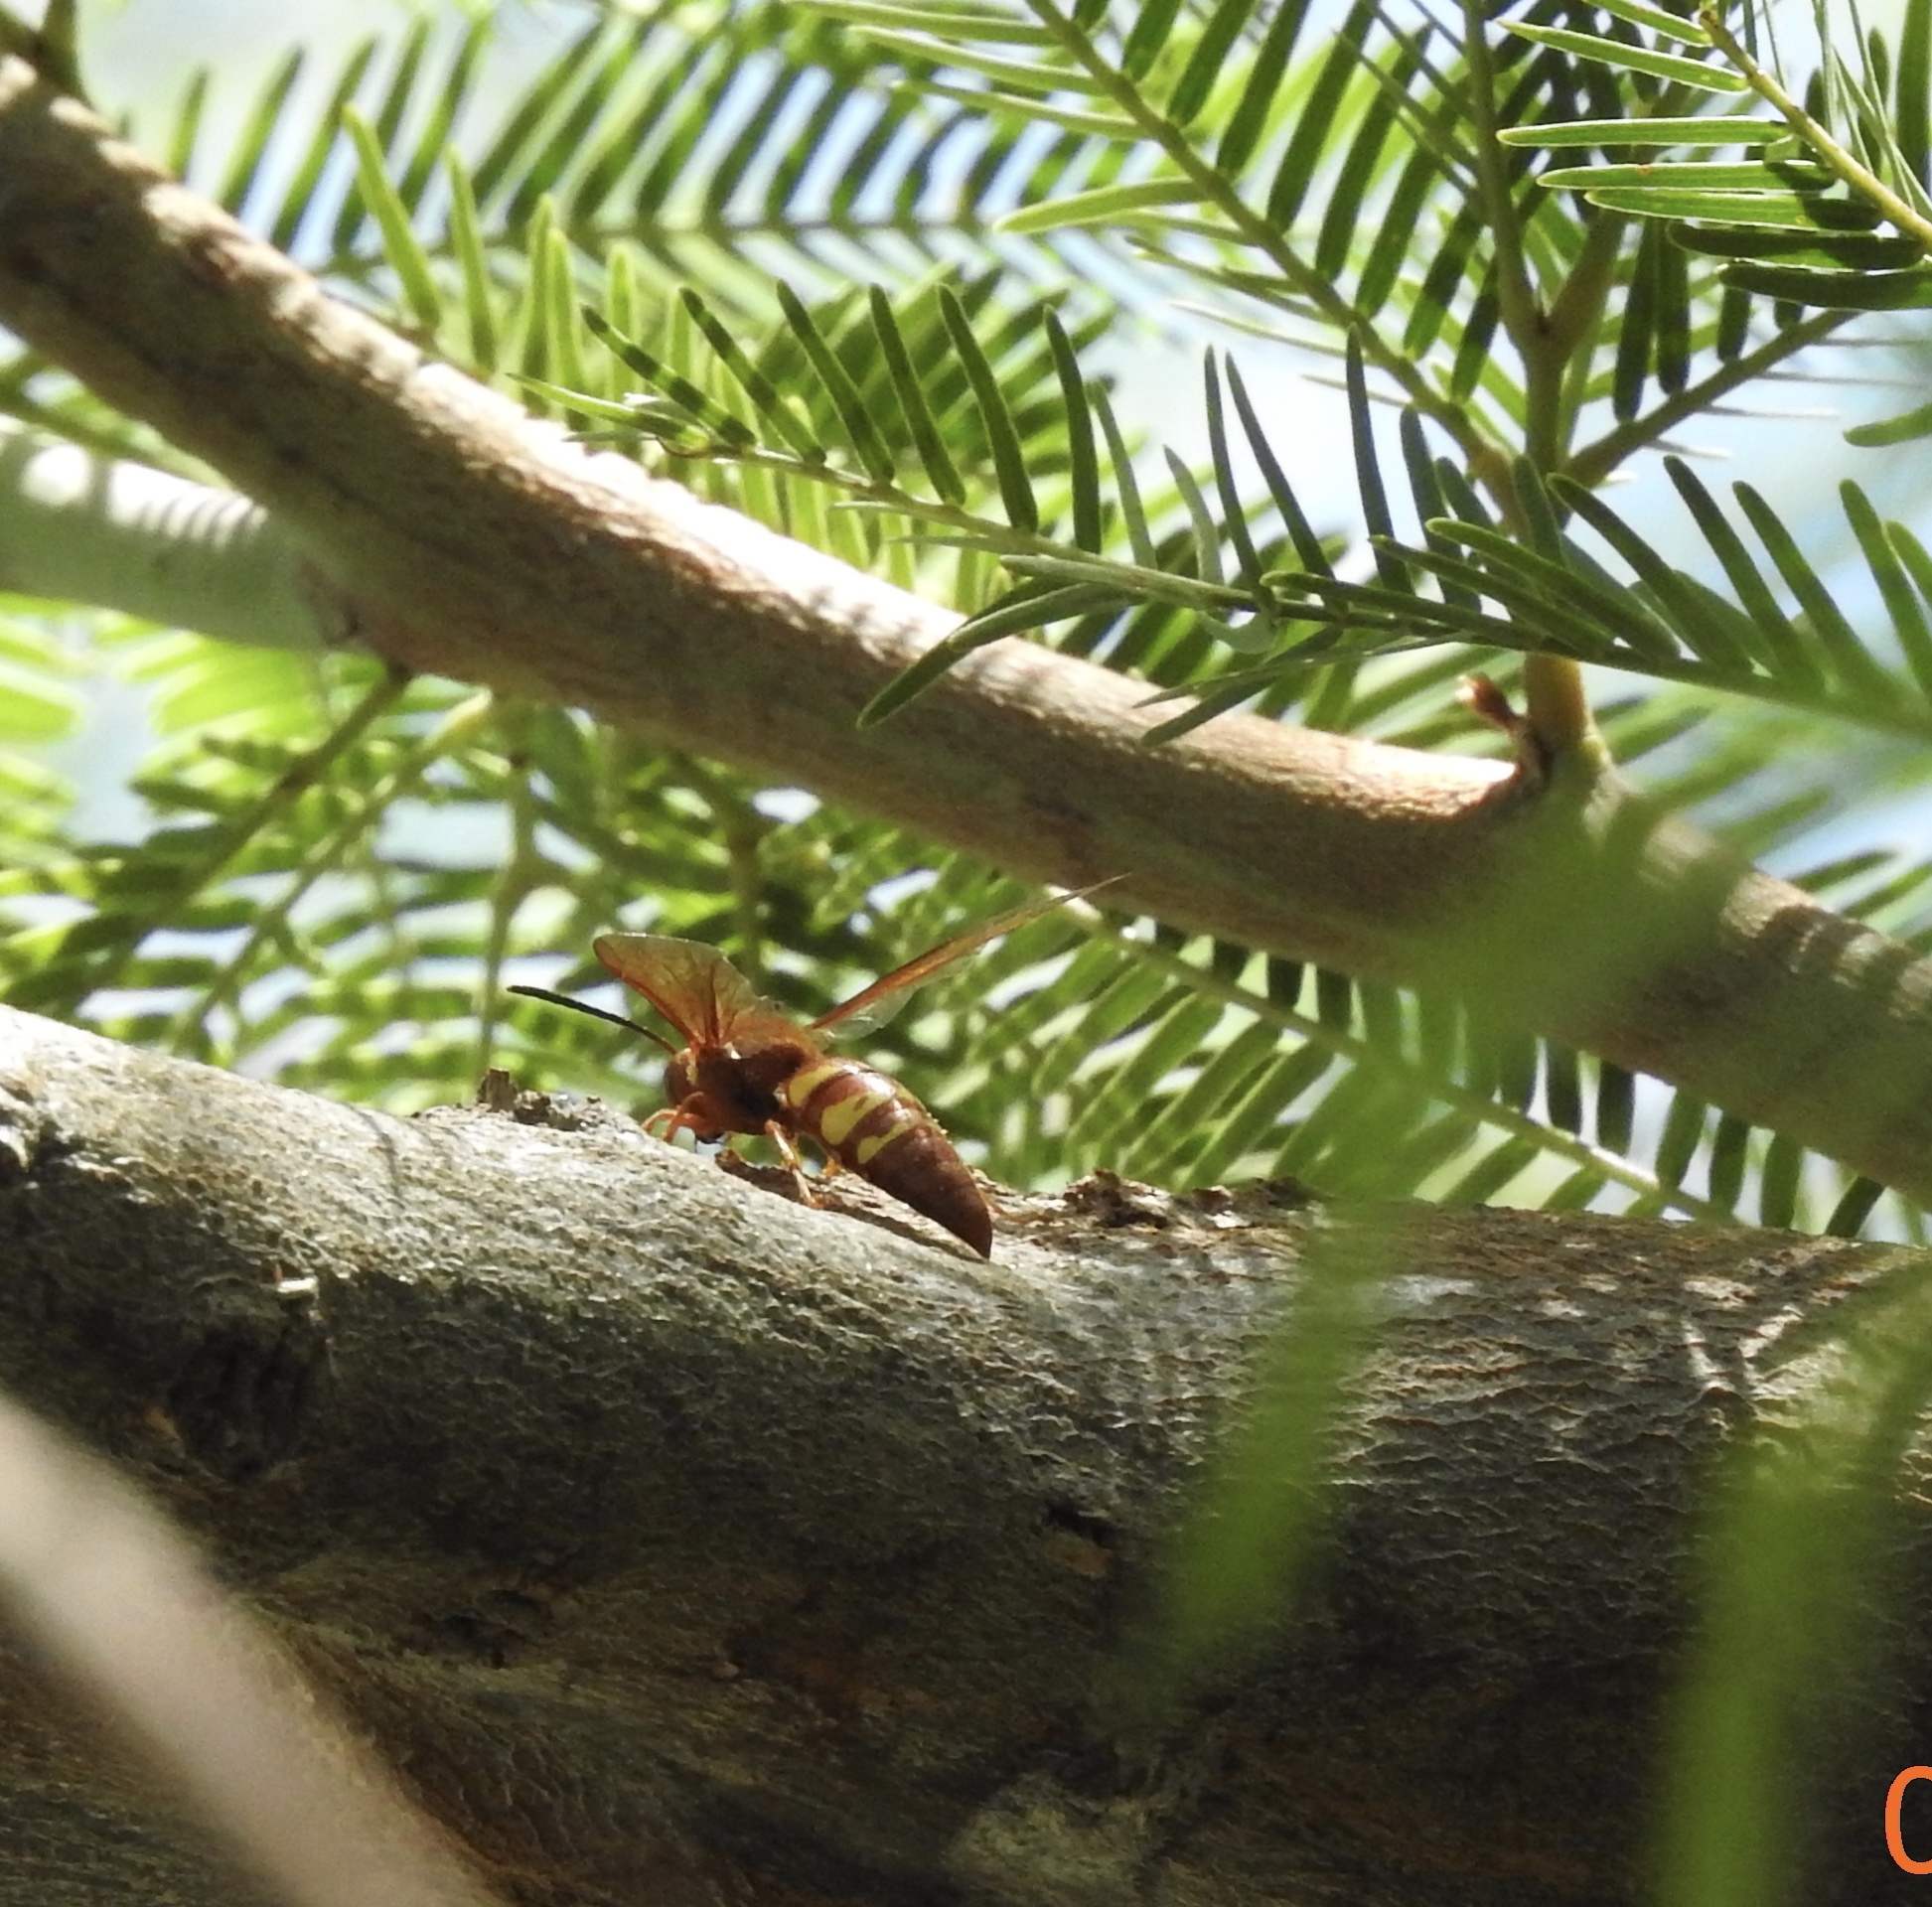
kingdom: Animalia
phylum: Arthropoda
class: Insecta
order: Hymenoptera
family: Crabronidae
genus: Sphecius
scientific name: Sphecius convallis
